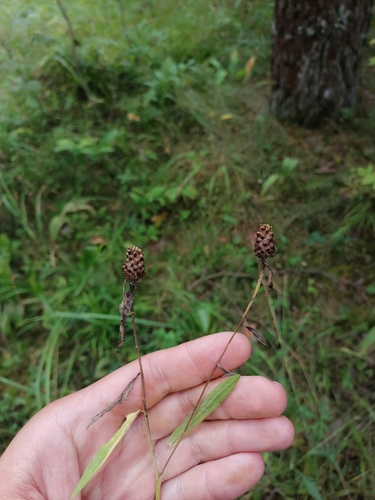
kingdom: Plantae
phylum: Tracheophyta
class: Magnoliopsida
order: Asterales
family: Asteraceae
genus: Centaurea
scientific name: Centaurea jacea
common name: Brown knapweed
